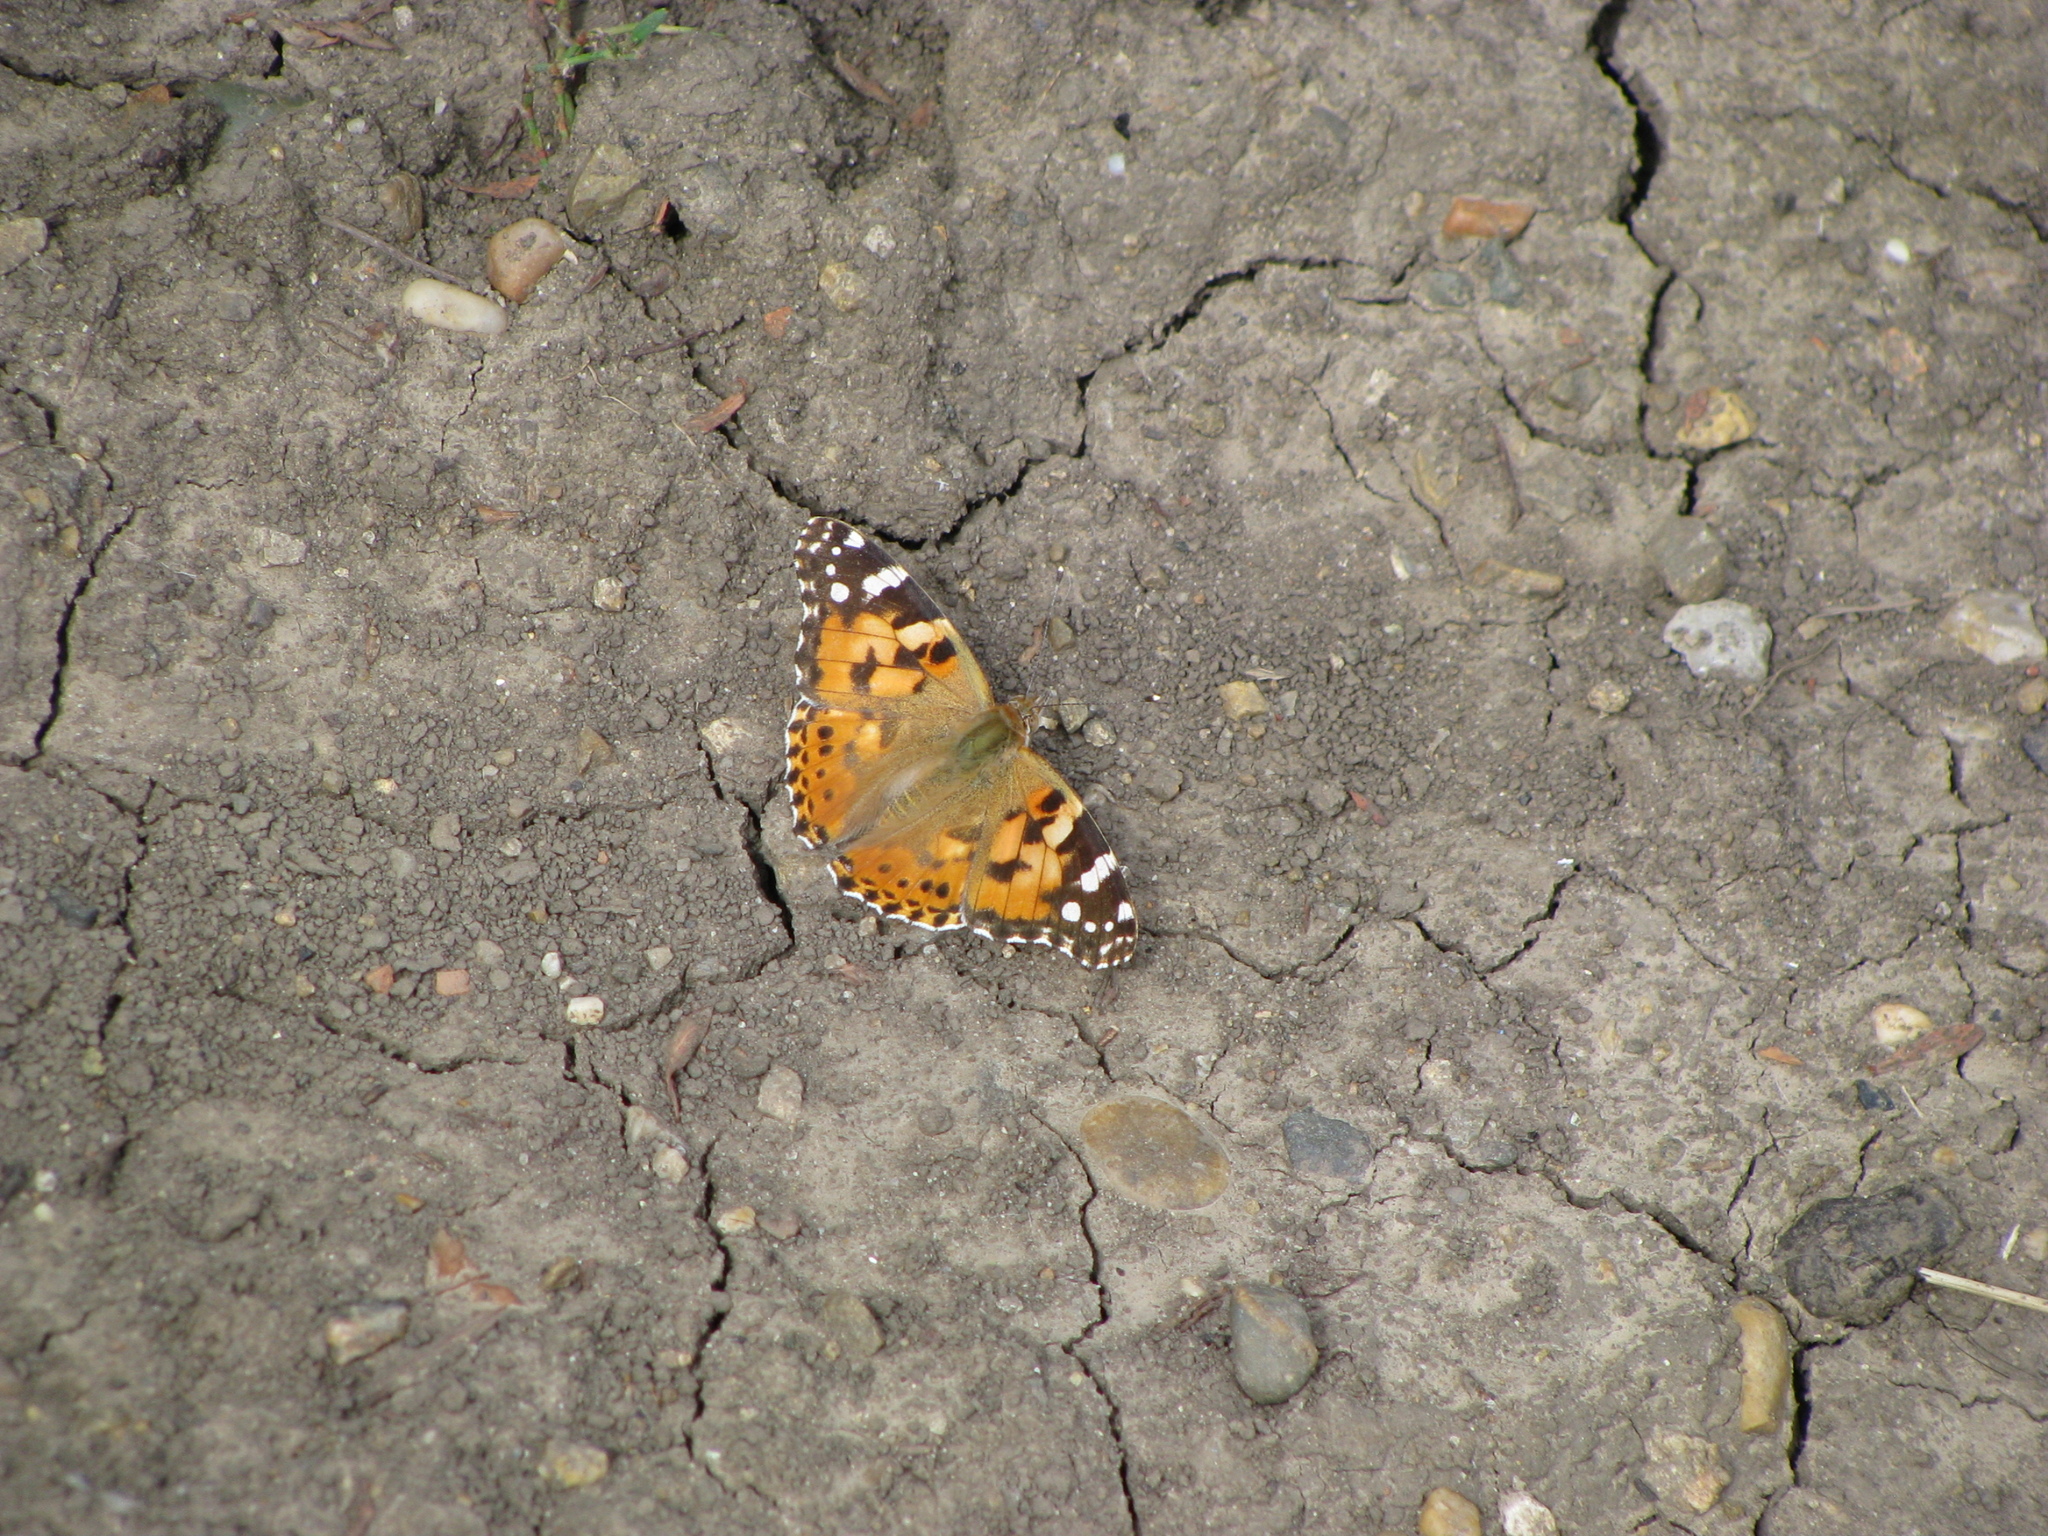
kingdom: Animalia
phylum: Arthropoda
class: Insecta
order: Lepidoptera
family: Nymphalidae
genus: Vanessa
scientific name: Vanessa cardui
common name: Painted lady
